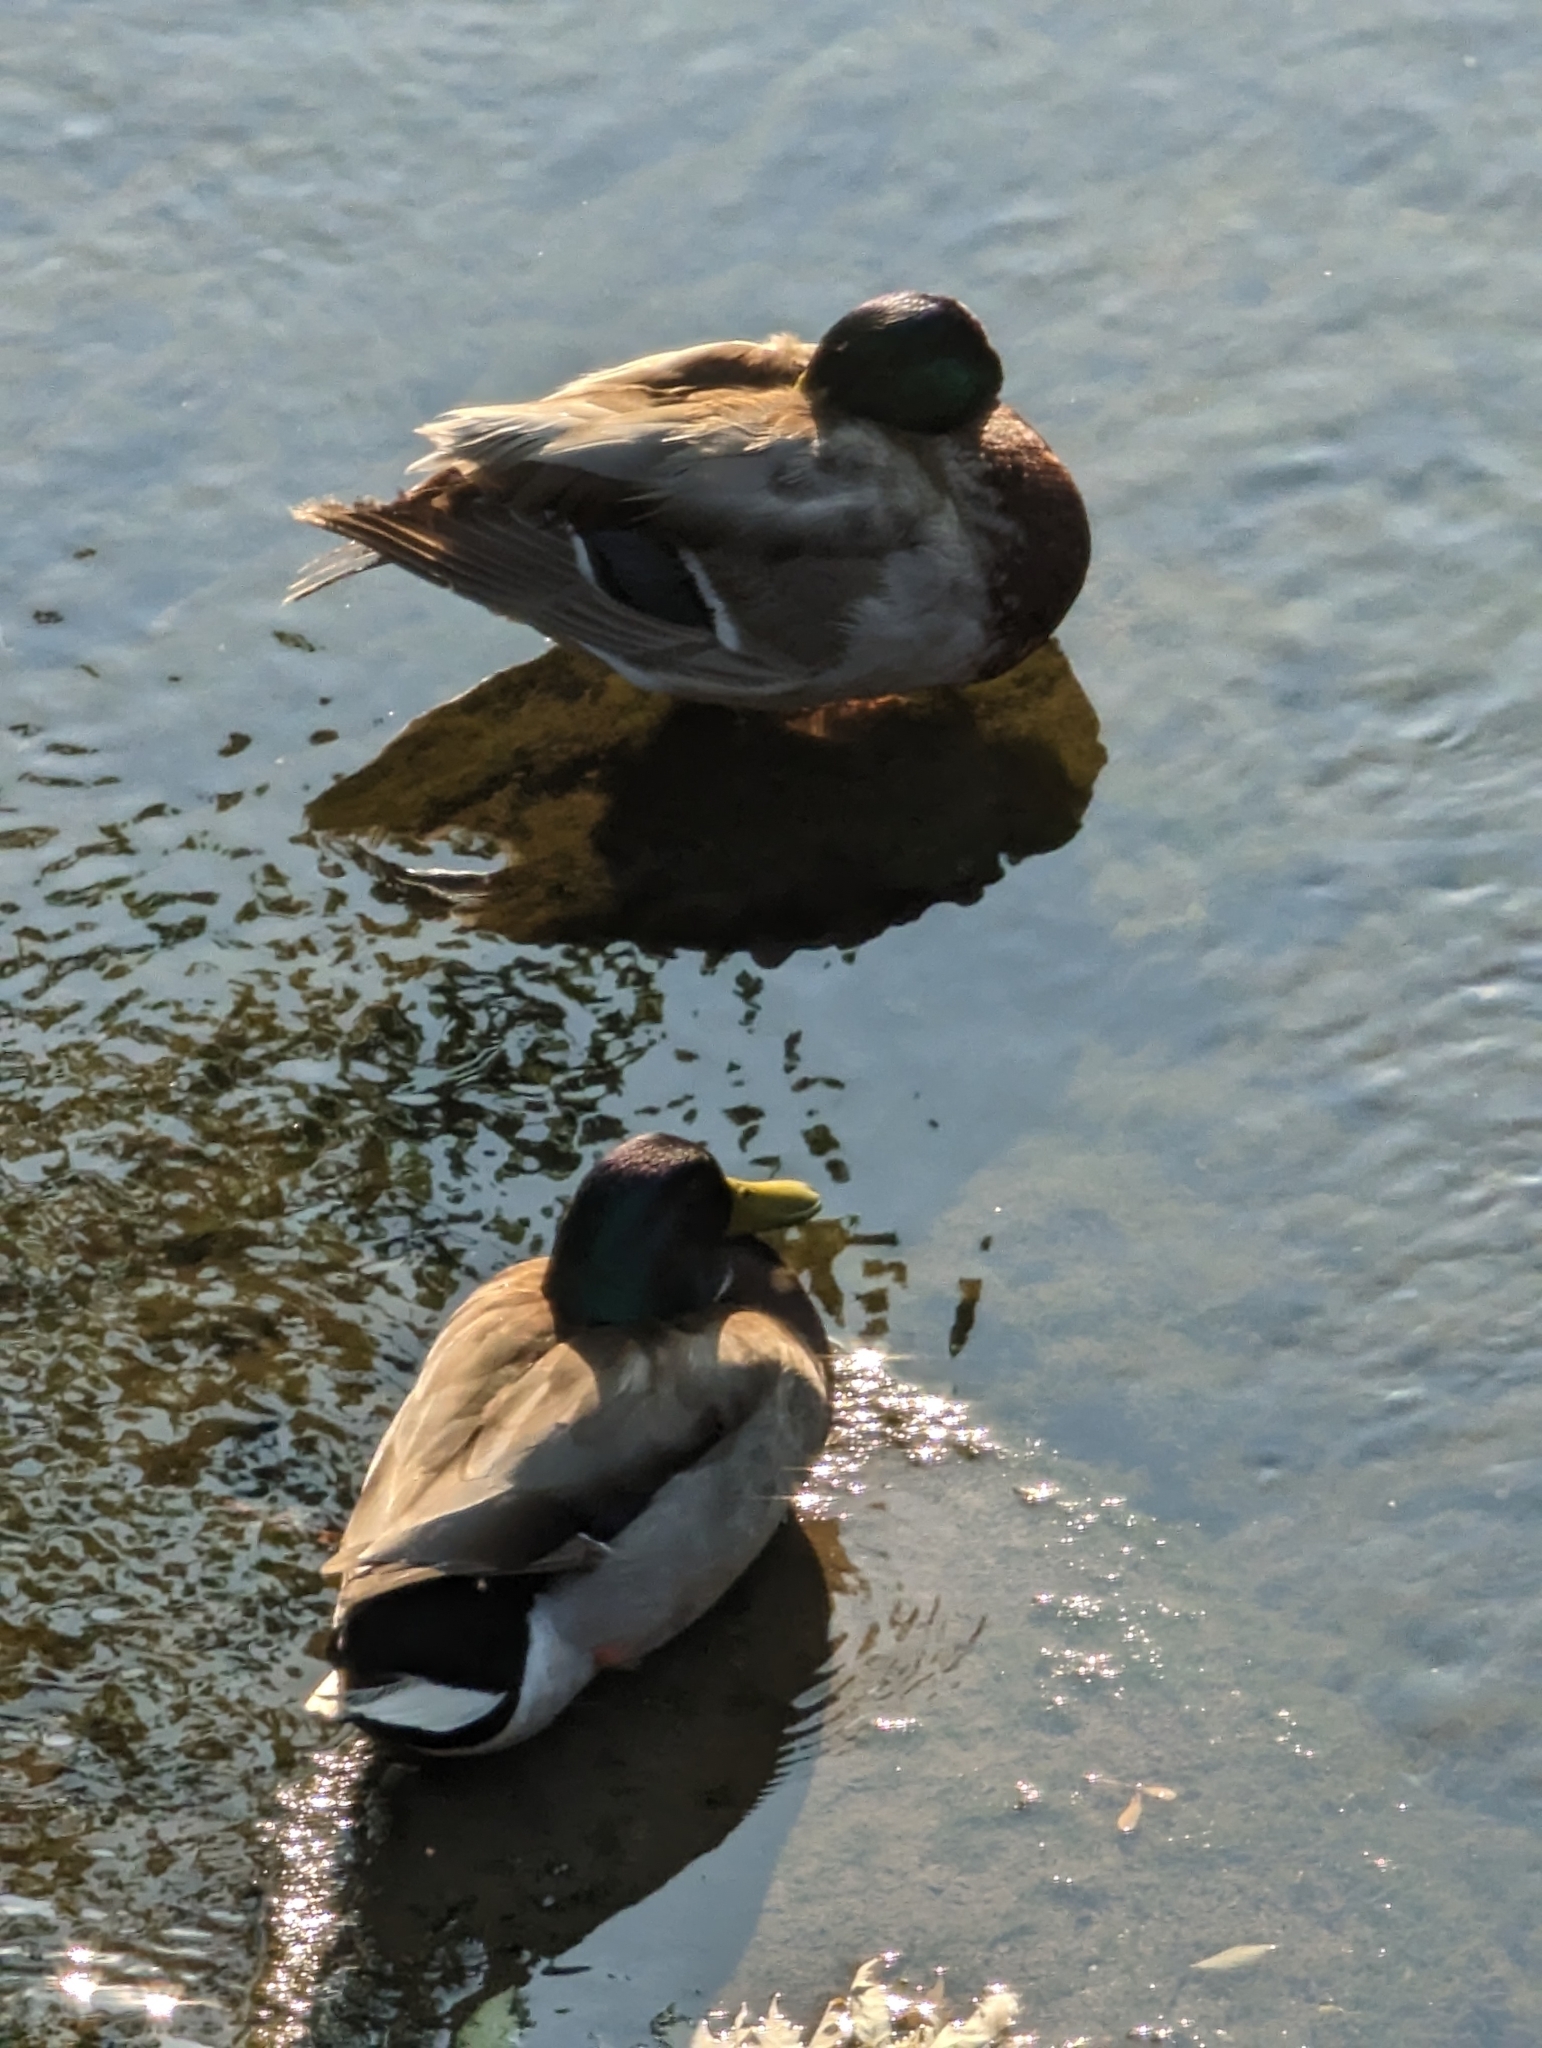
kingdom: Animalia
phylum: Chordata
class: Aves
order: Anseriformes
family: Anatidae
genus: Anas
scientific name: Anas platyrhynchos
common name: Mallard
